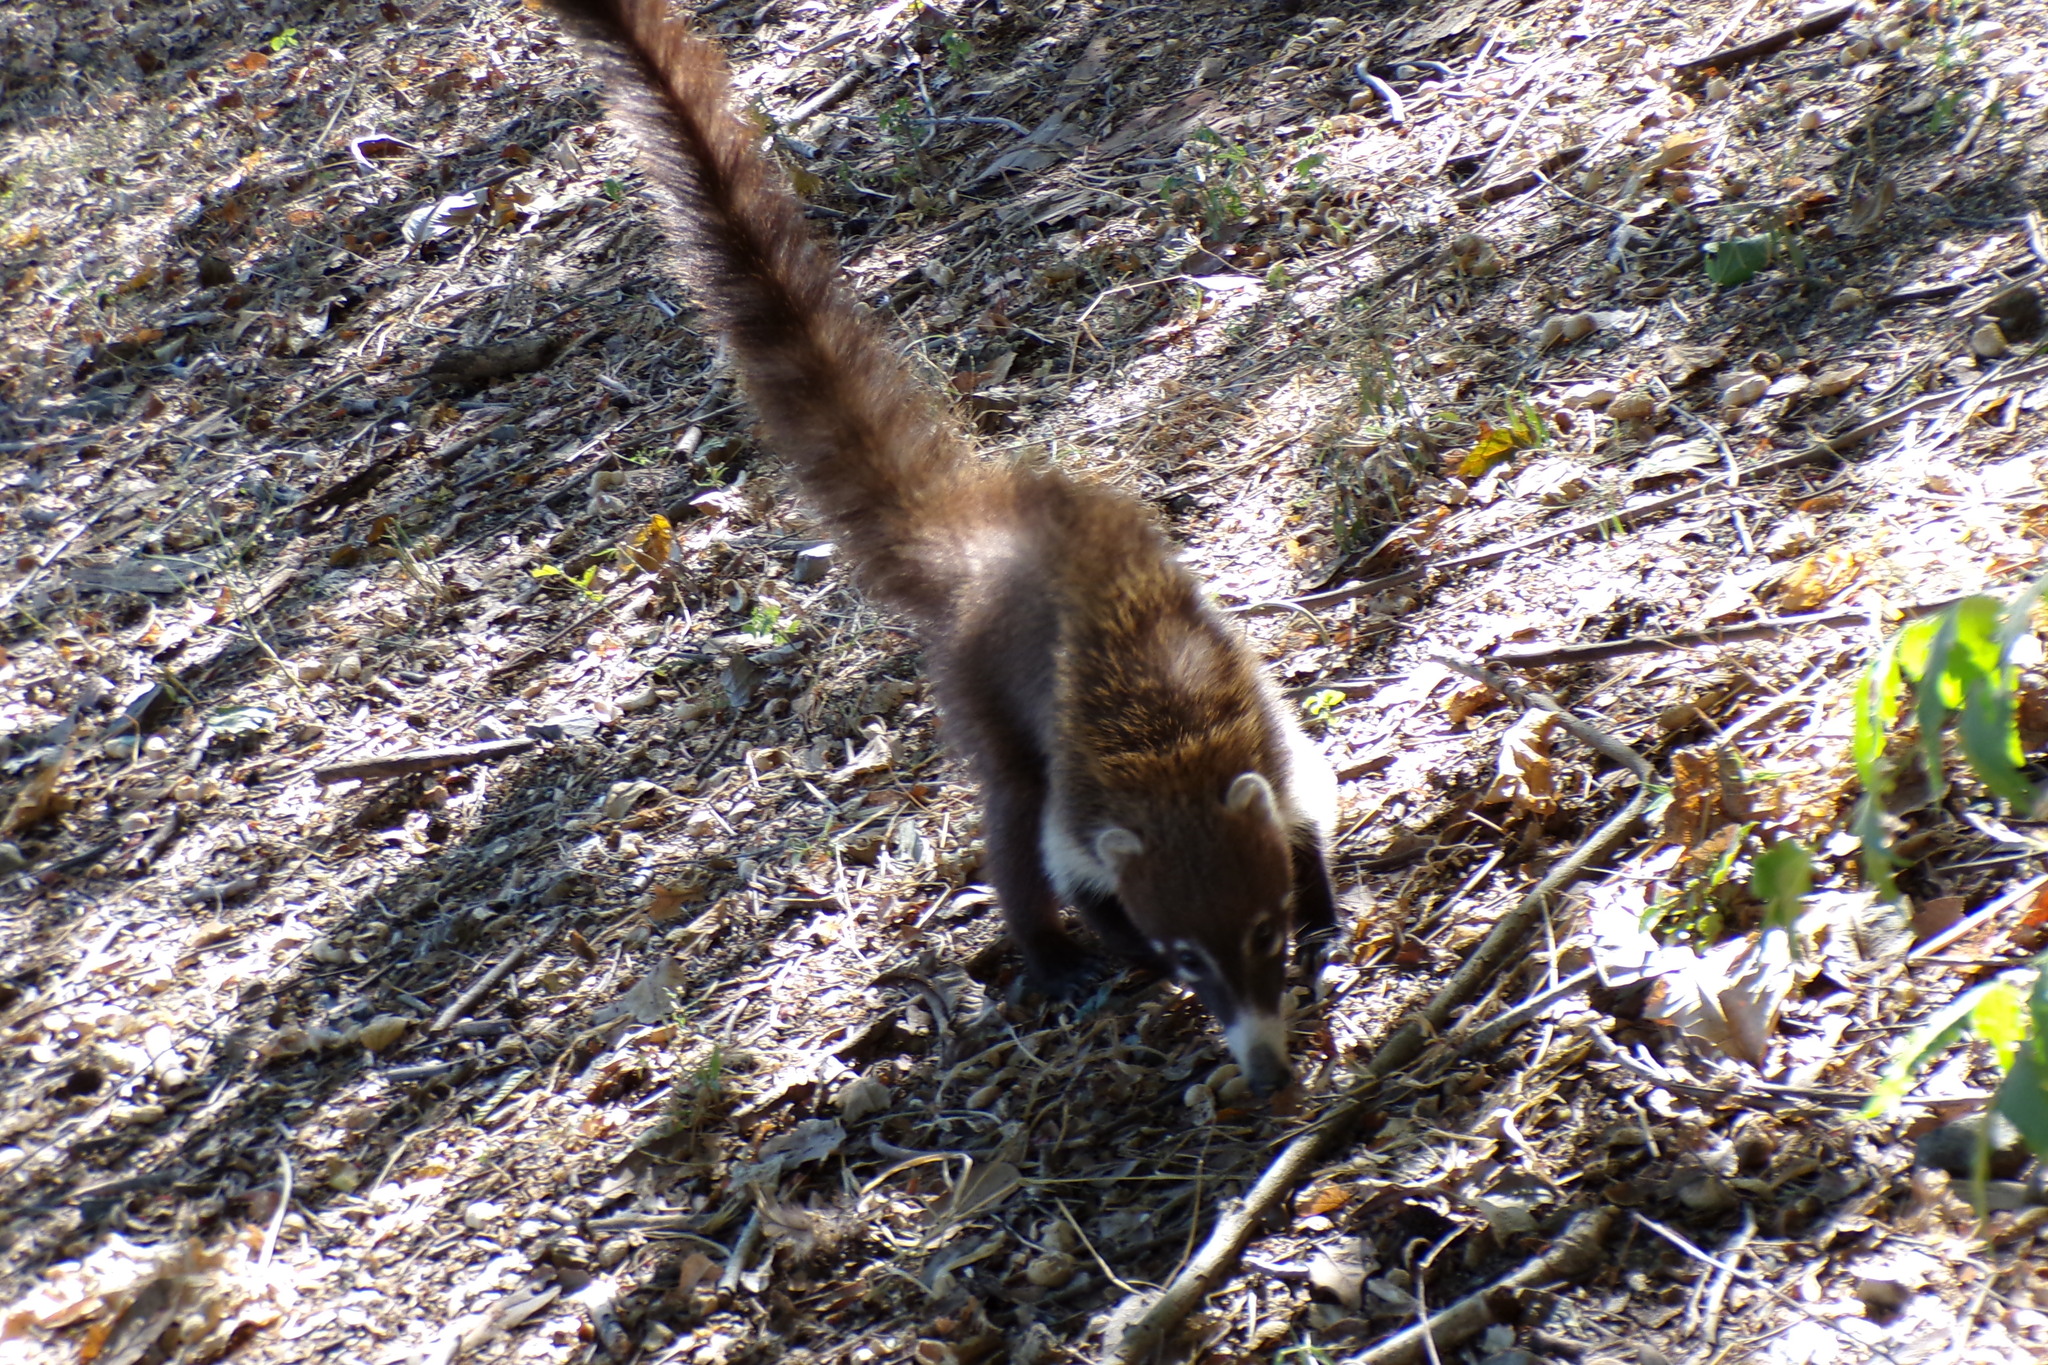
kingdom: Animalia
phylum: Chordata
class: Mammalia
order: Carnivora
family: Procyonidae
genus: Nasua
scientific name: Nasua narica
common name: White-nosed coati
